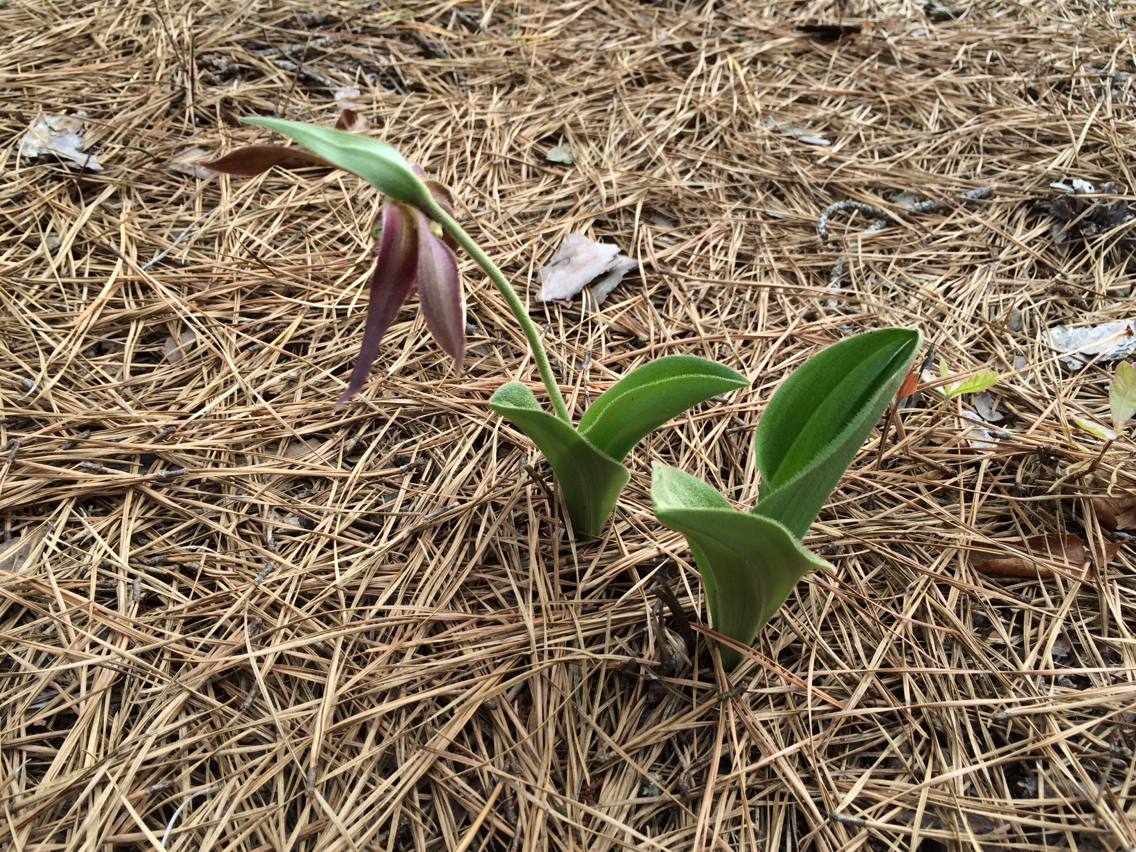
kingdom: Plantae
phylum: Tracheophyta
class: Liliopsida
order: Asparagales
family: Orchidaceae
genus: Cypripedium
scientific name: Cypripedium acaule
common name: Pink lady's-slipper
